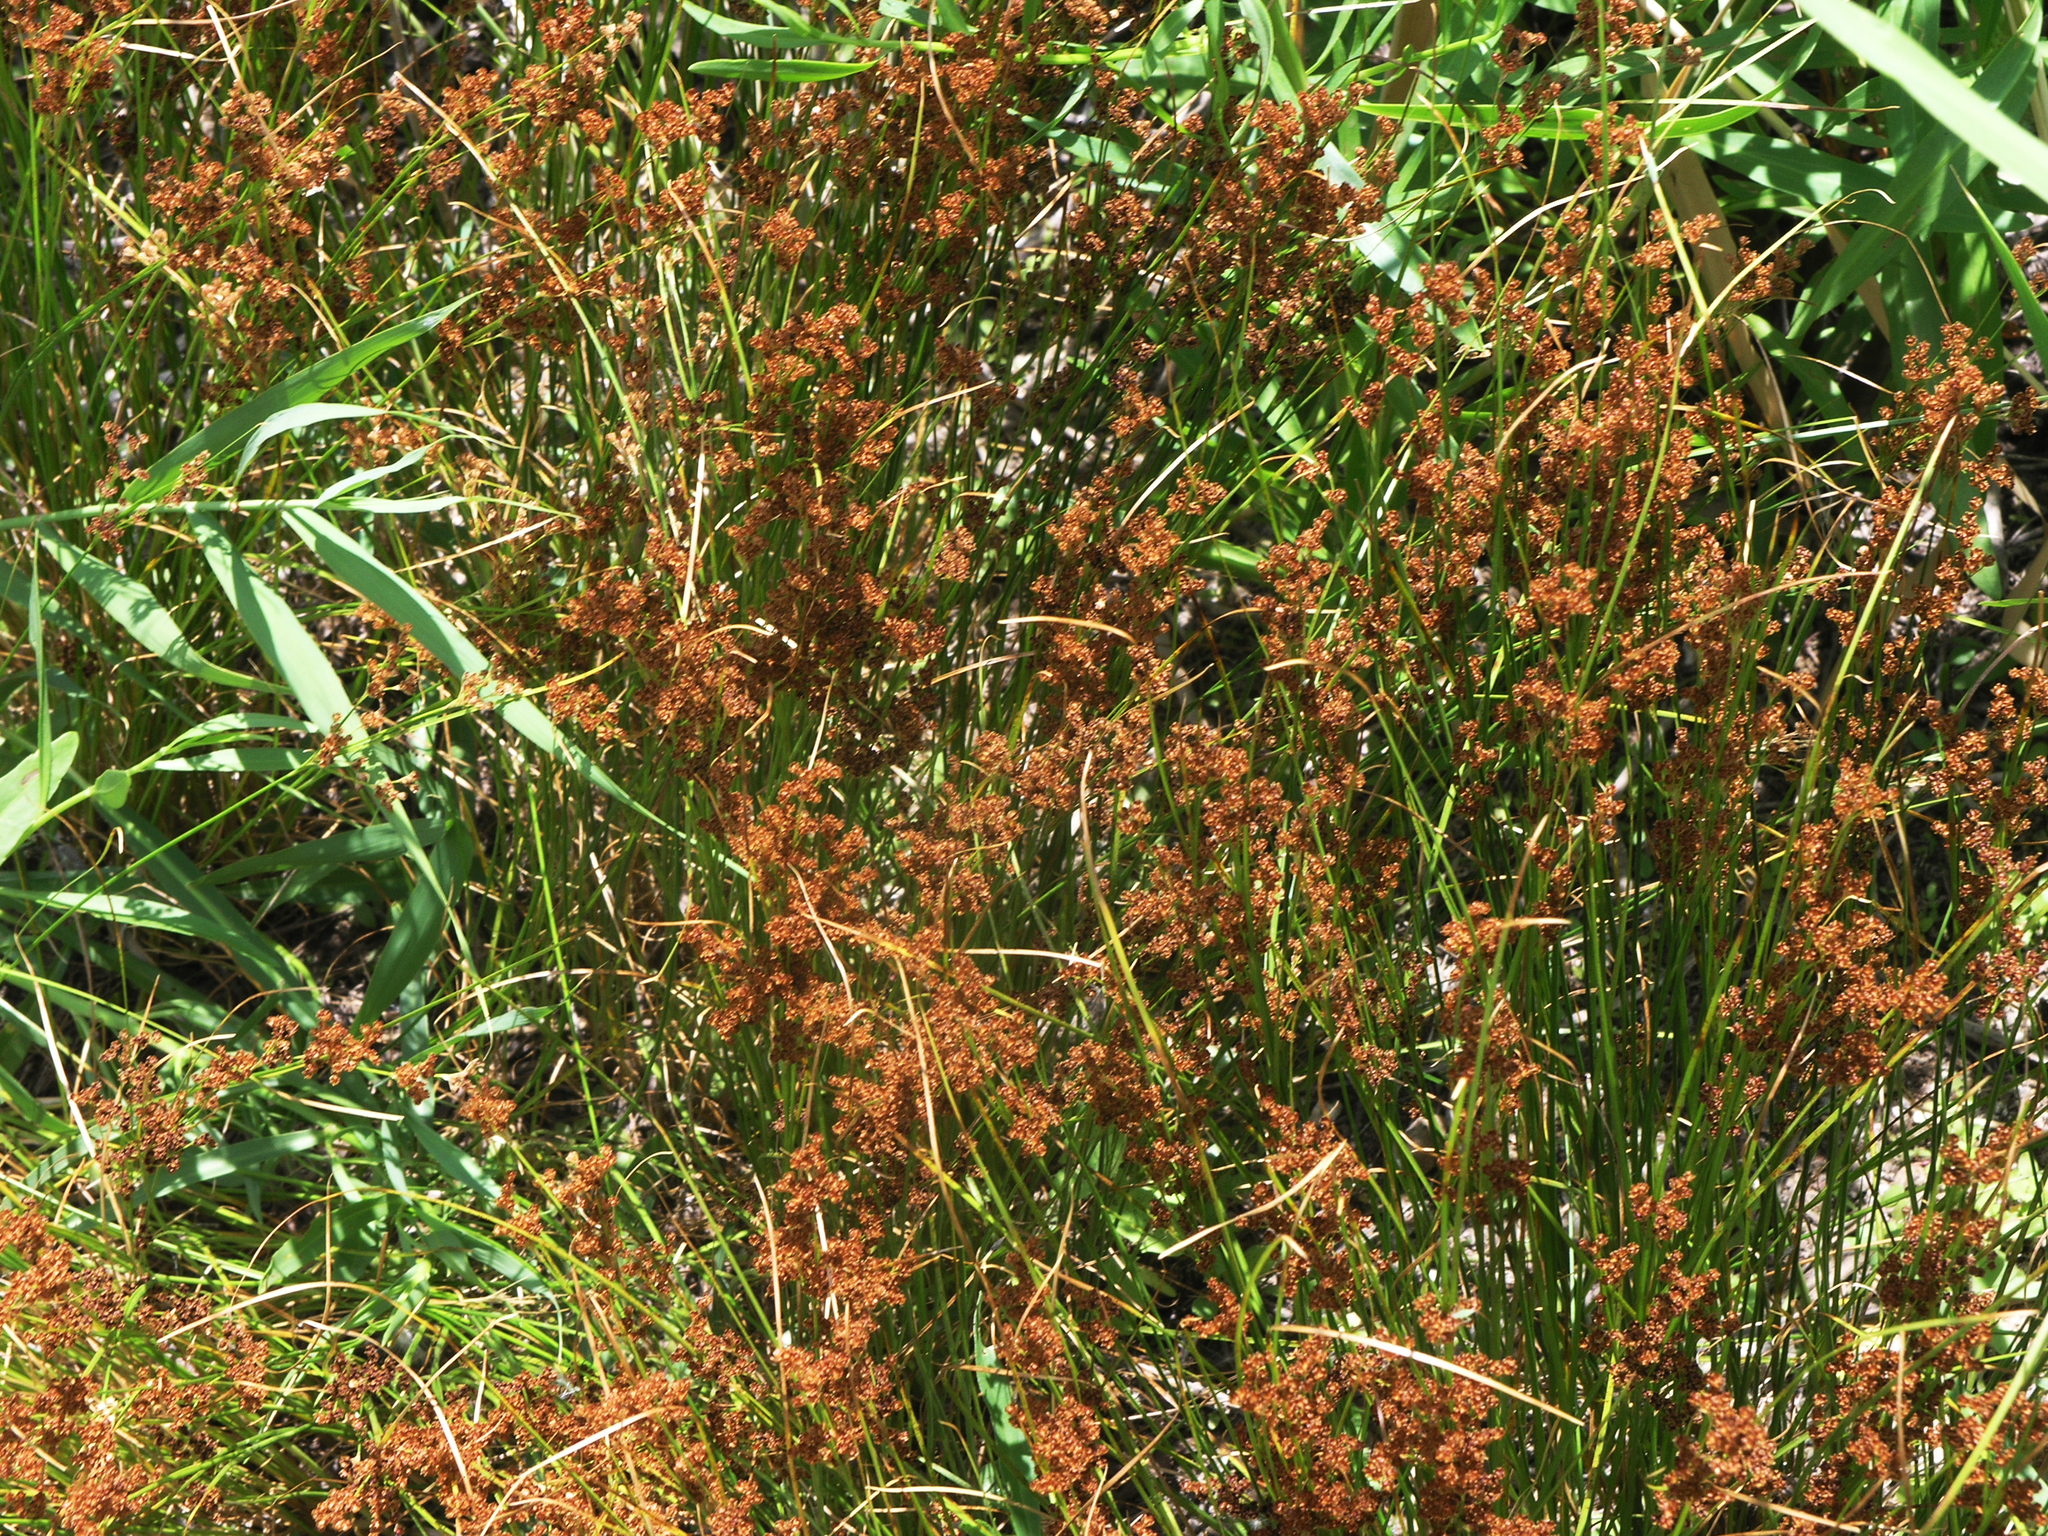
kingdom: Plantae
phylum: Tracheophyta
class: Liliopsida
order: Poales
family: Juncaceae
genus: Juncus
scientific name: Juncus compressus
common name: Round-fruited rush
